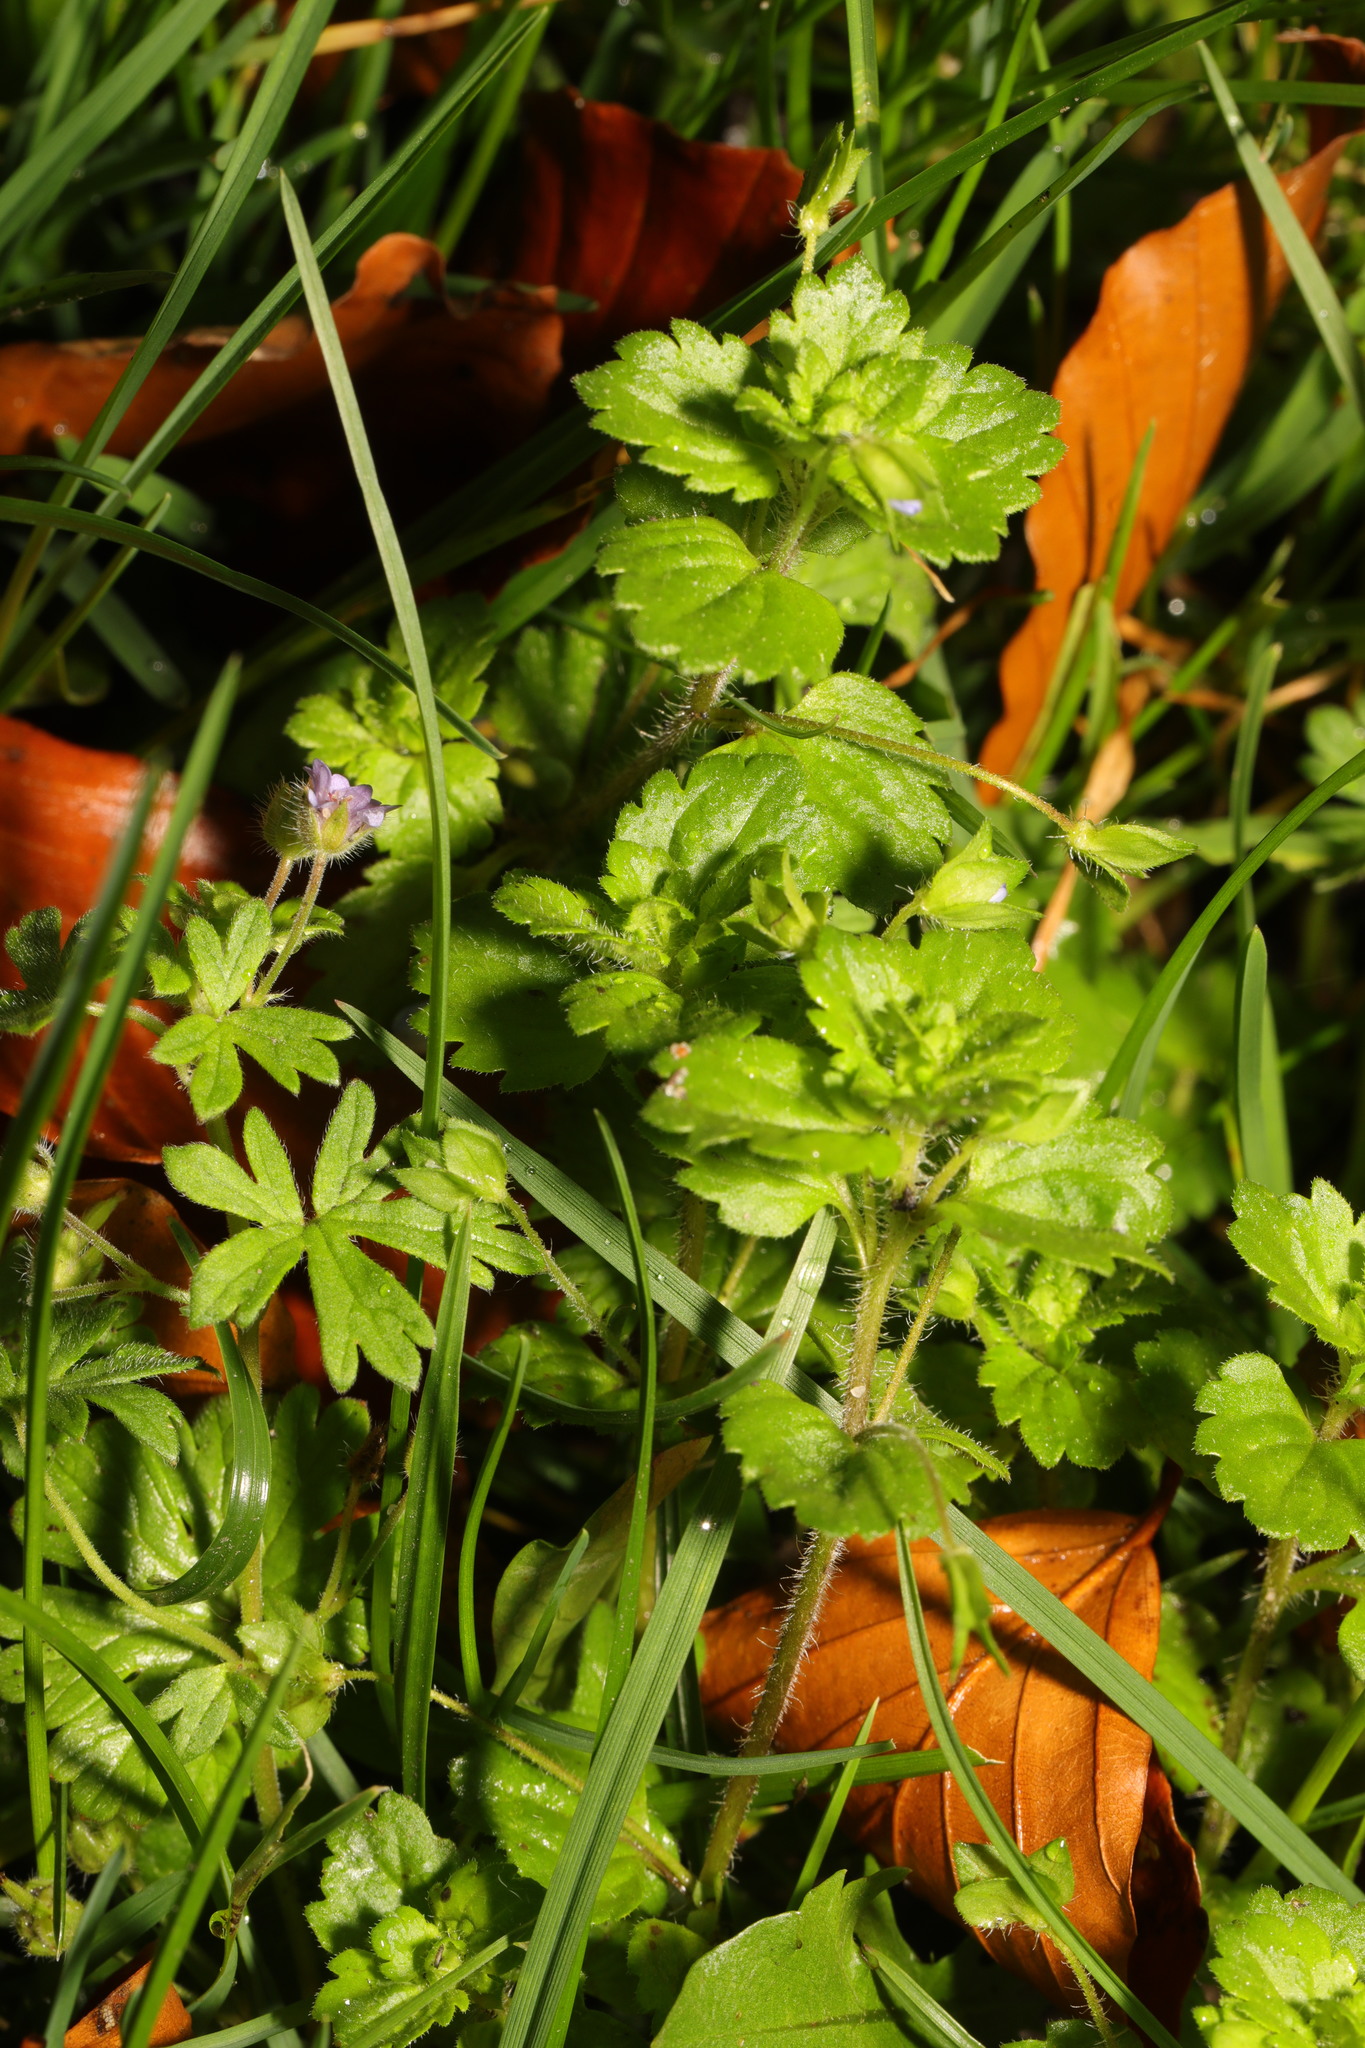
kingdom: Plantae
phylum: Tracheophyta
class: Magnoliopsida
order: Lamiales
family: Plantaginaceae
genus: Veronica
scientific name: Veronica persica
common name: Common field-speedwell
